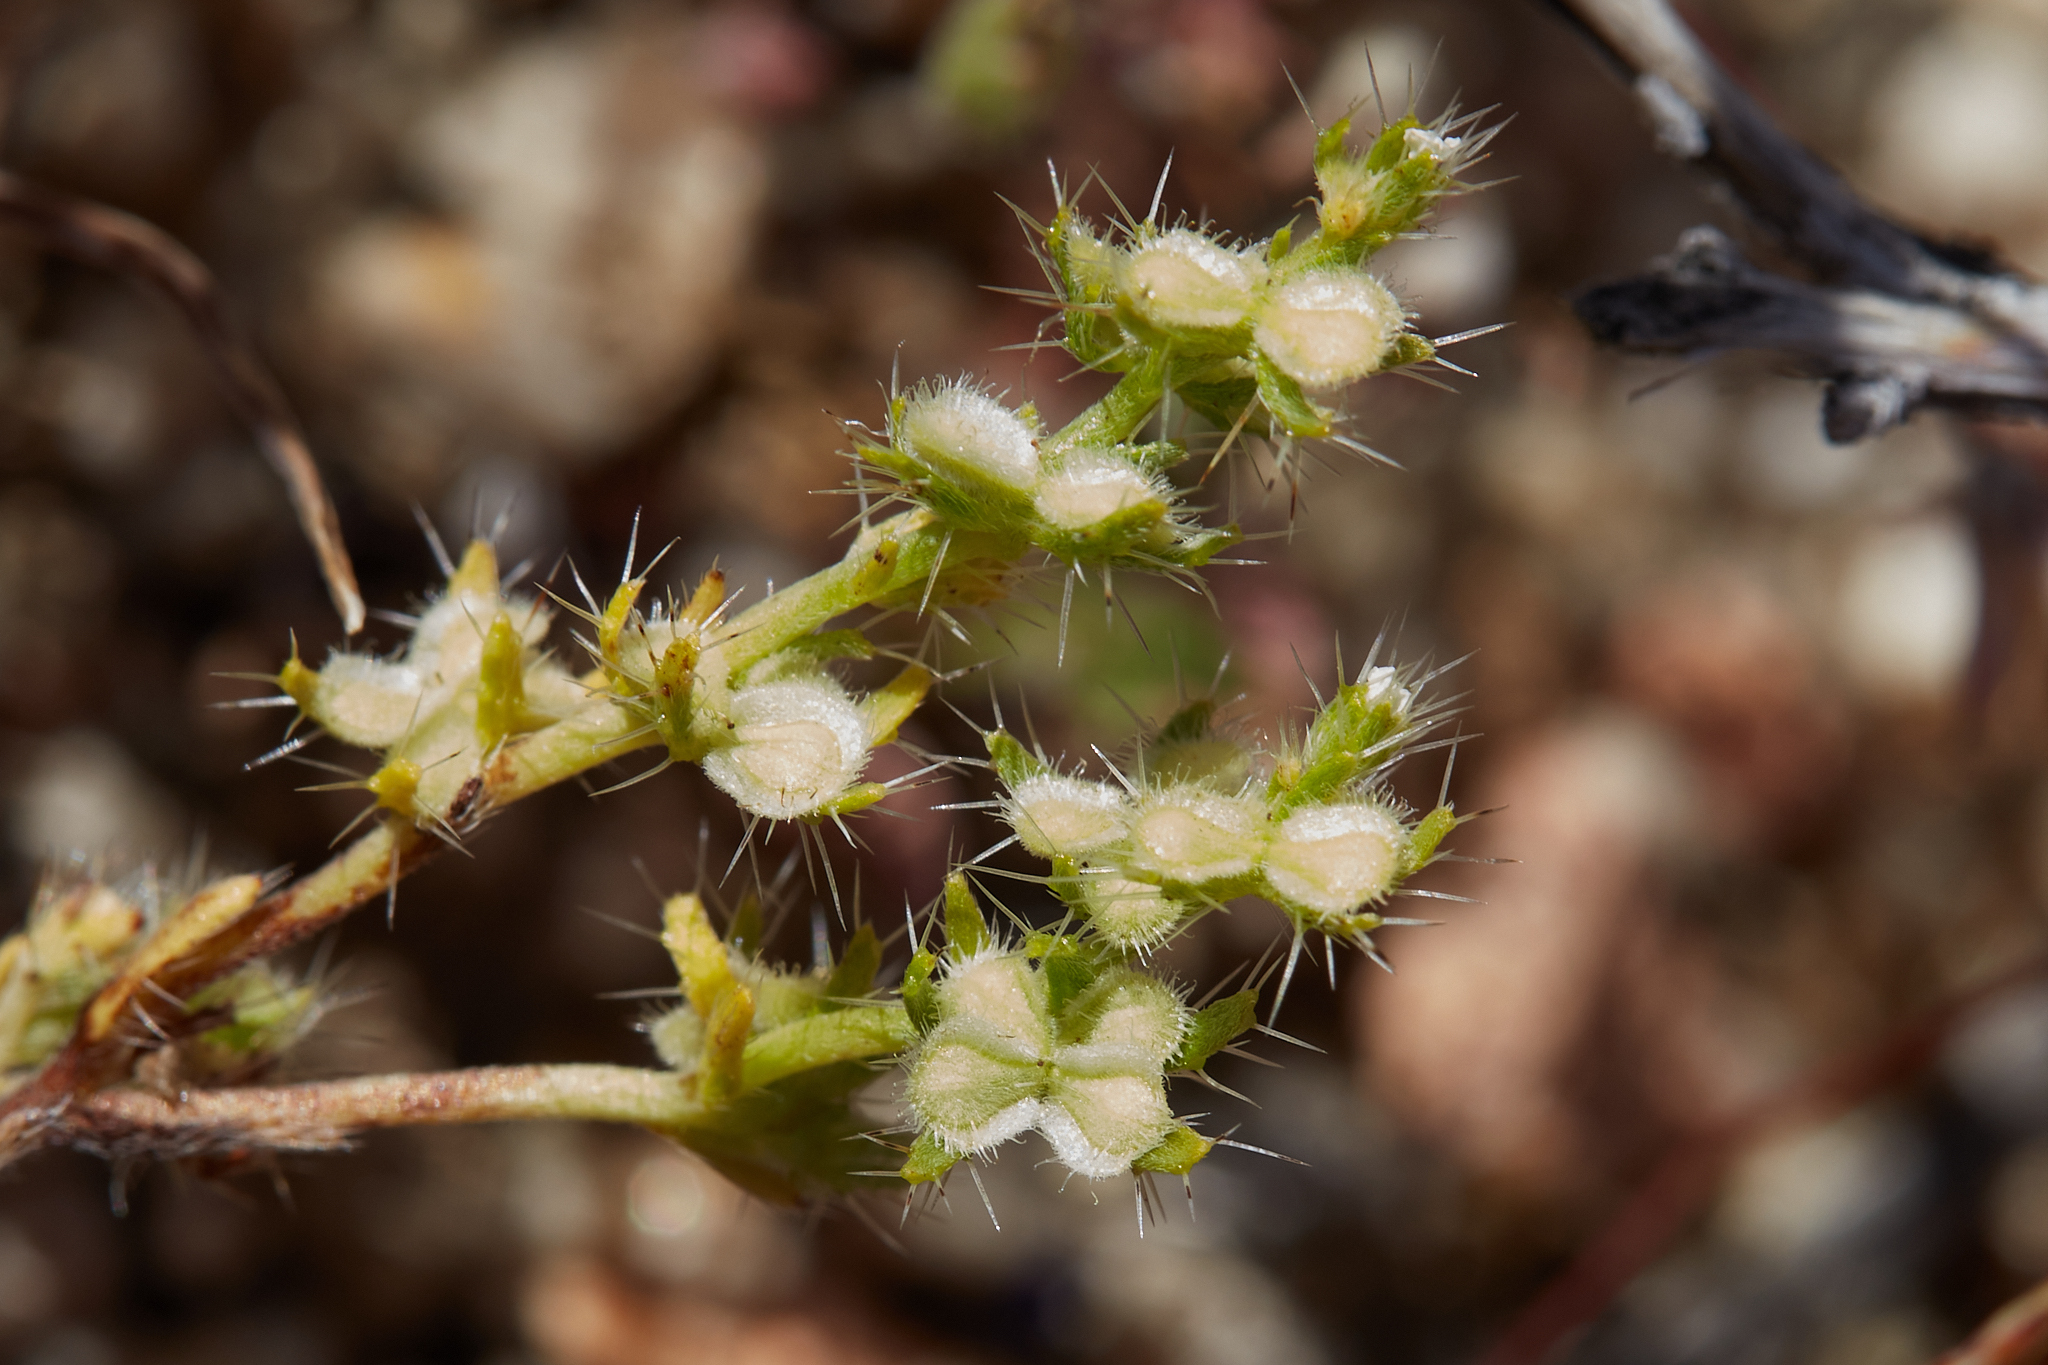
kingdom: Plantae
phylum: Tracheophyta
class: Magnoliopsida
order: Boraginales
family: Boraginaceae
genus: Pectocarya
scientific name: Pectocarya setosa
